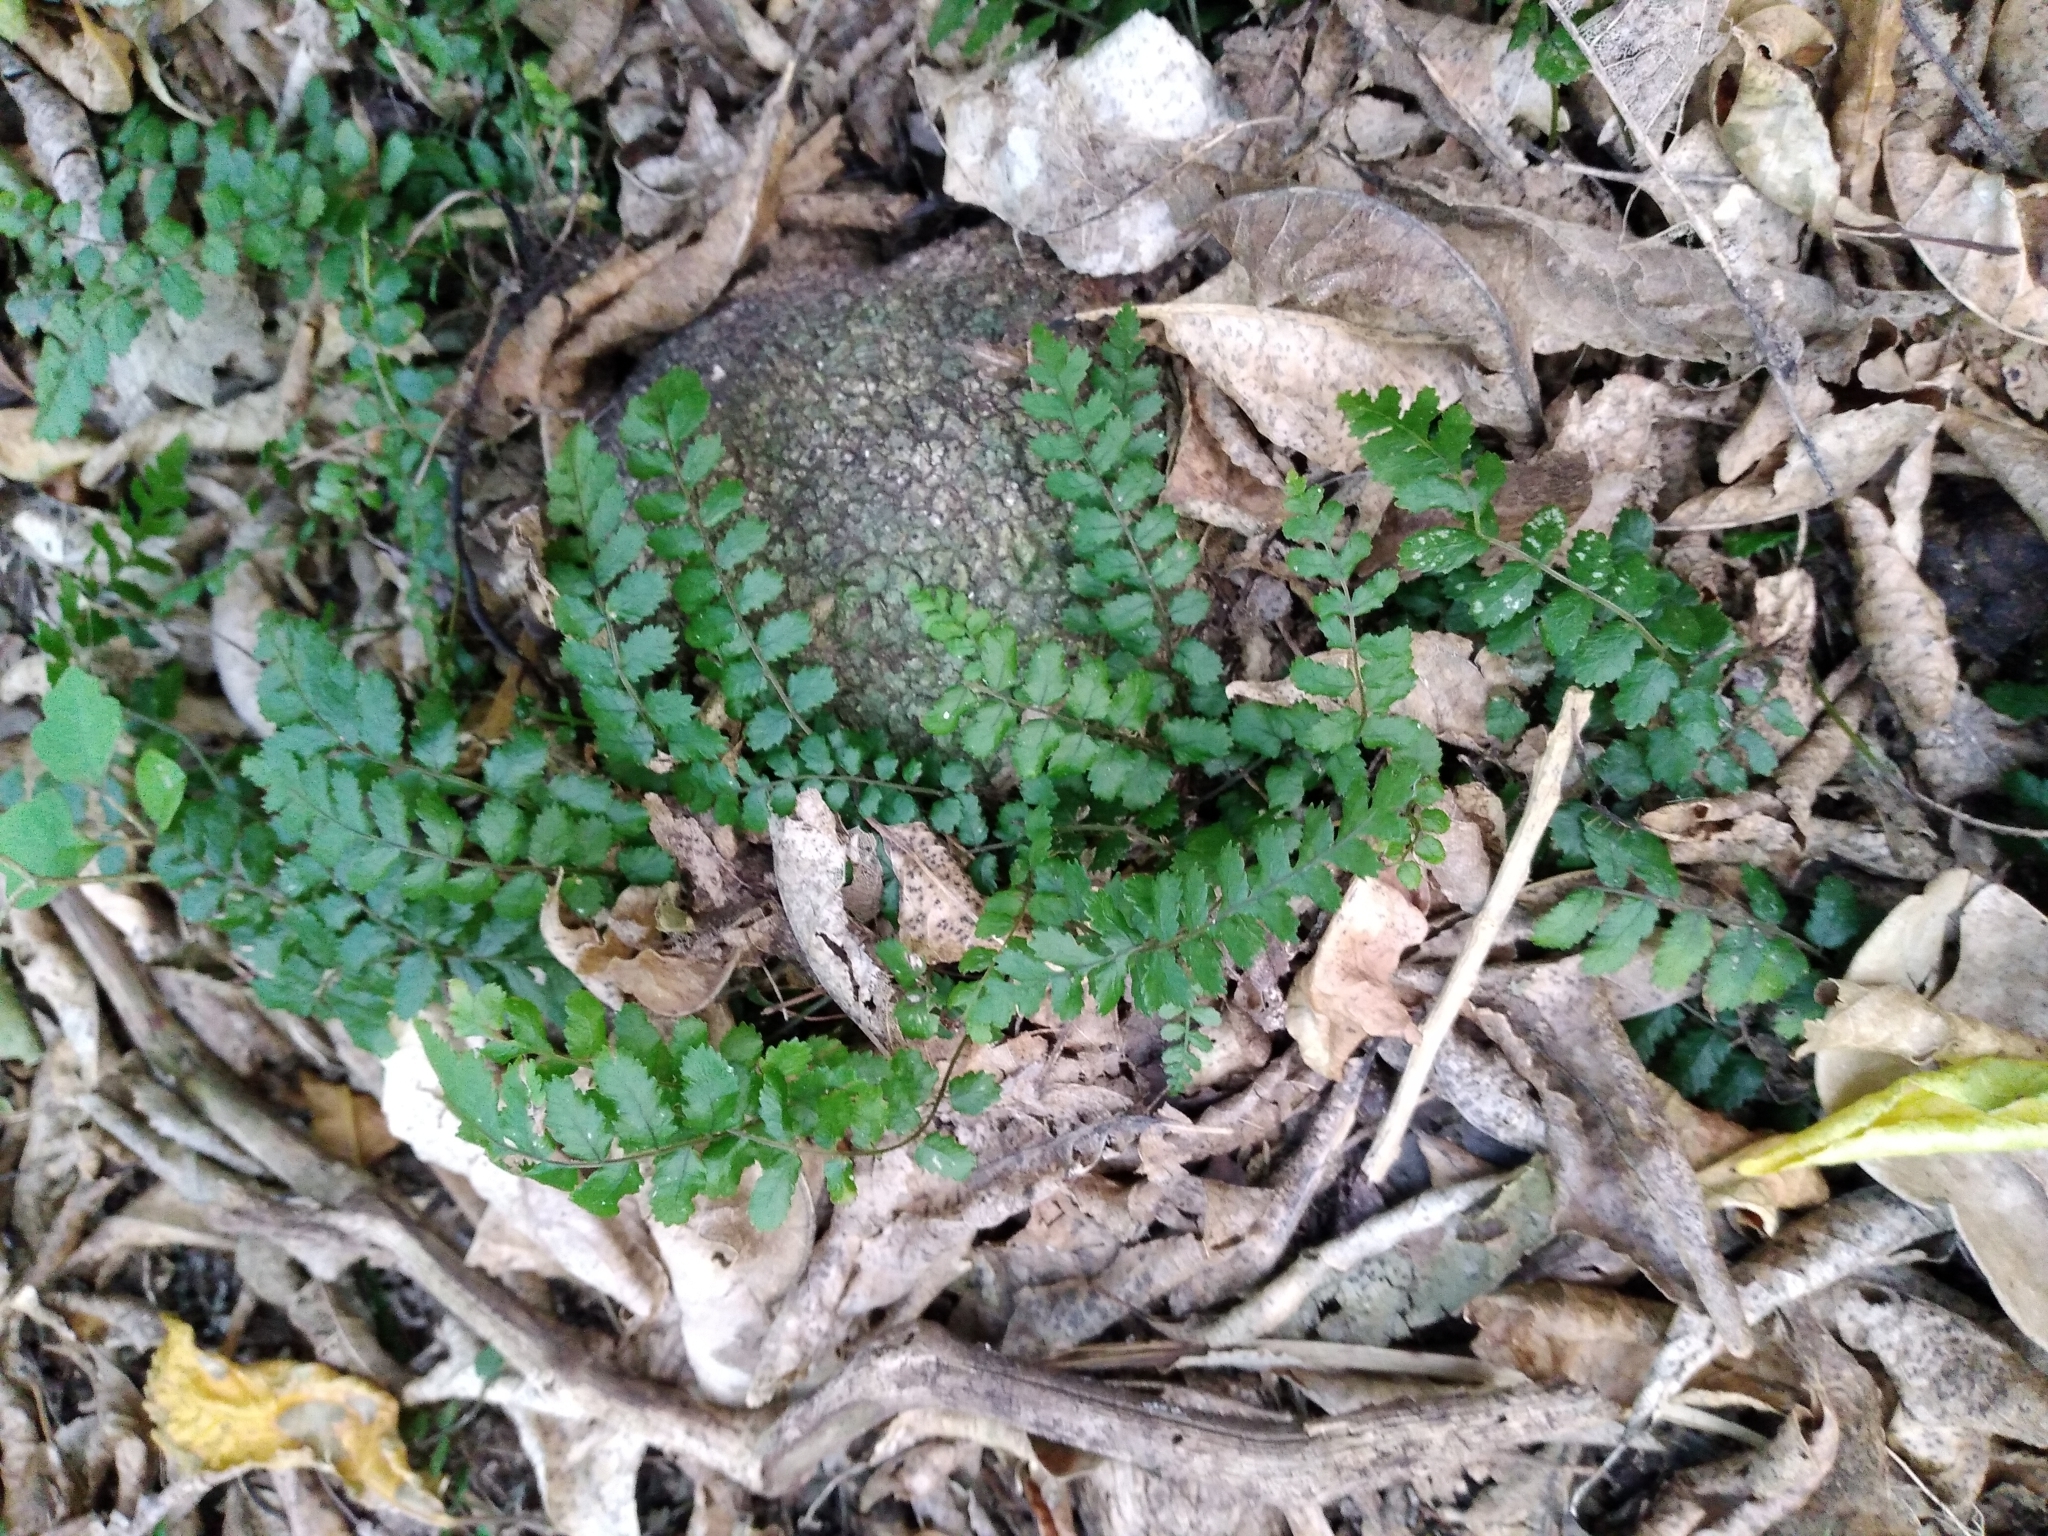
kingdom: Plantae
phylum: Tracheophyta
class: Polypodiopsida
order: Polypodiales
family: Blechnaceae
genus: Icarus
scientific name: Icarus filiformis
